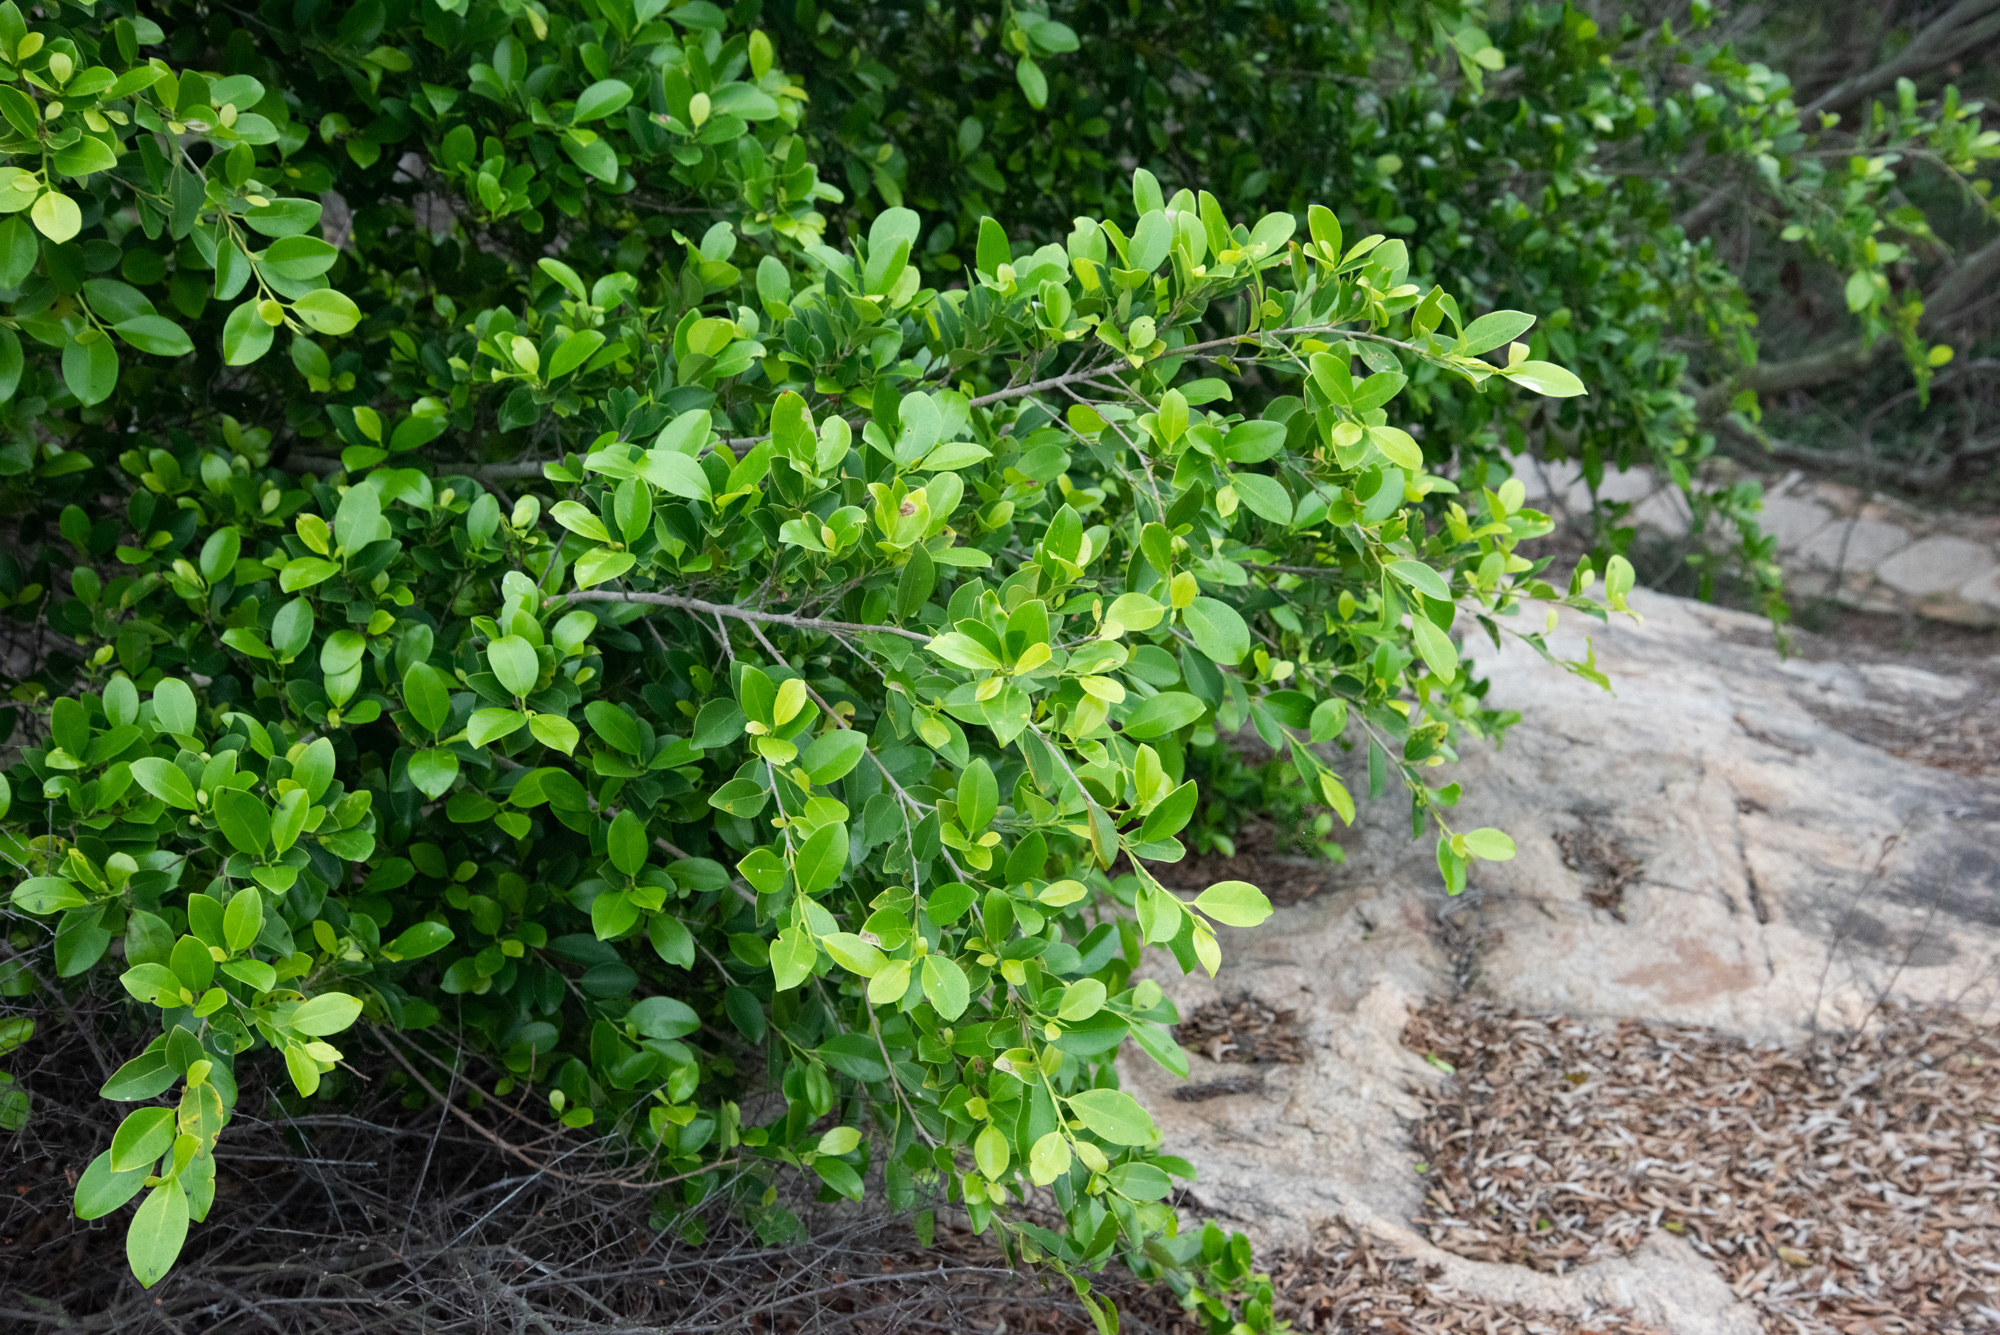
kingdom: Plantae
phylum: Tracheophyta
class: Magnoliopsida
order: Rosales
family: Moraceae
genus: Ficus
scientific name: Ficus microcarpa
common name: Chinese banyan
